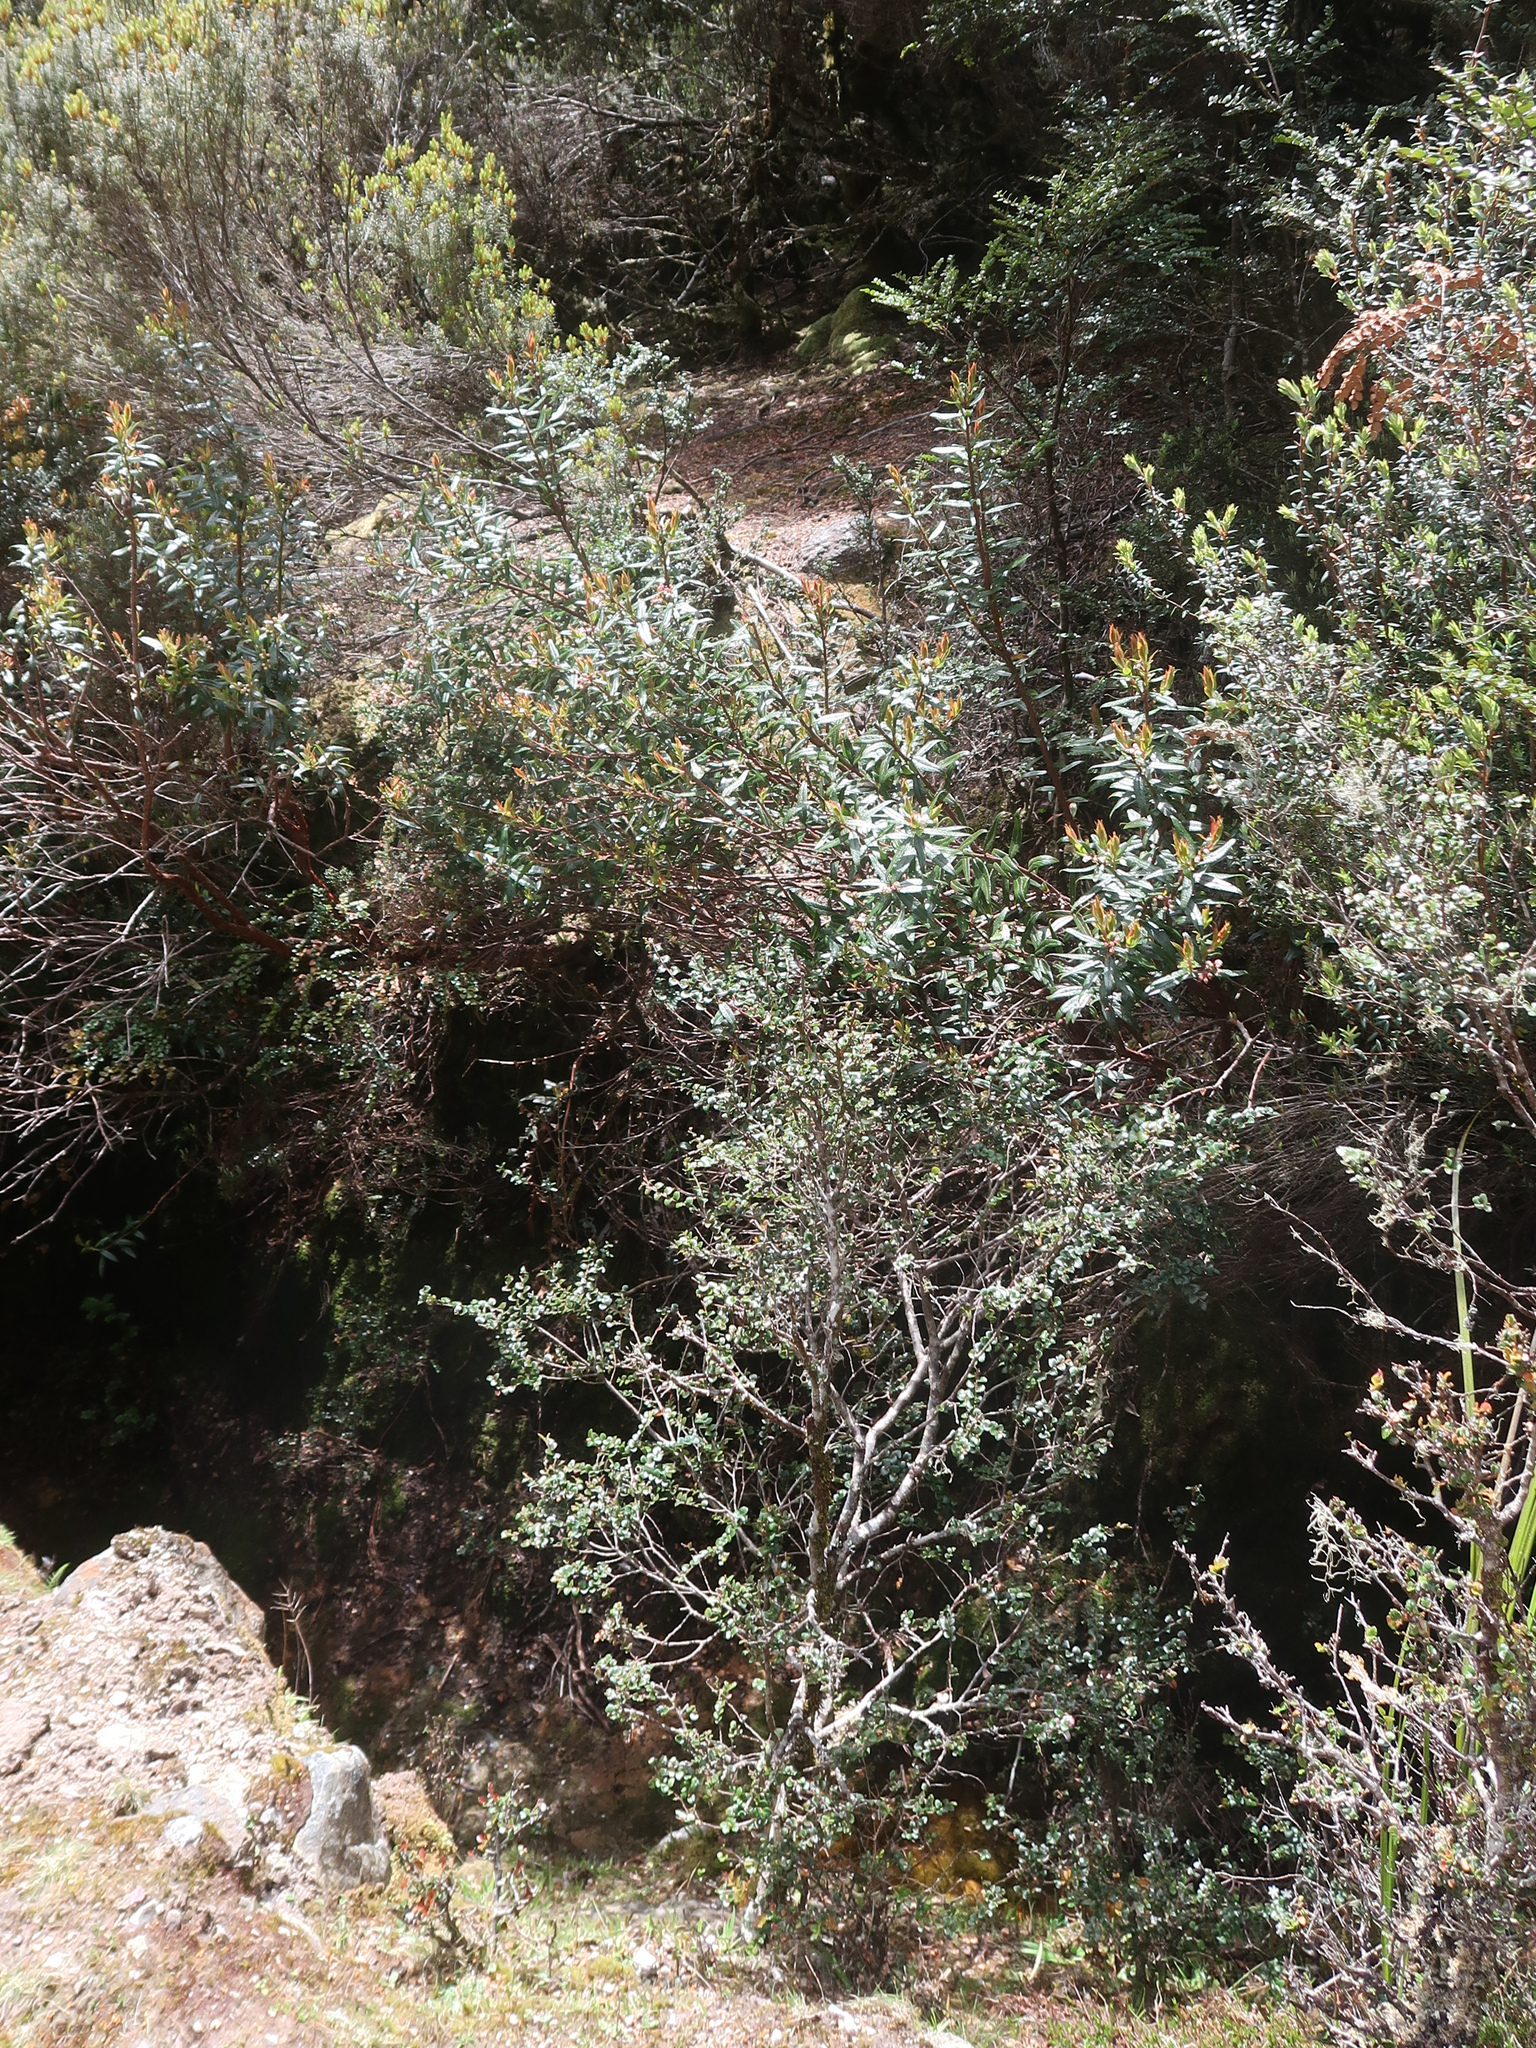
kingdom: Plantae
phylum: Tracheophyta
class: Magnoliopsida
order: Ericales
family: Ericaceae
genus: Gaultheria
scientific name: Gaultheria hispida
